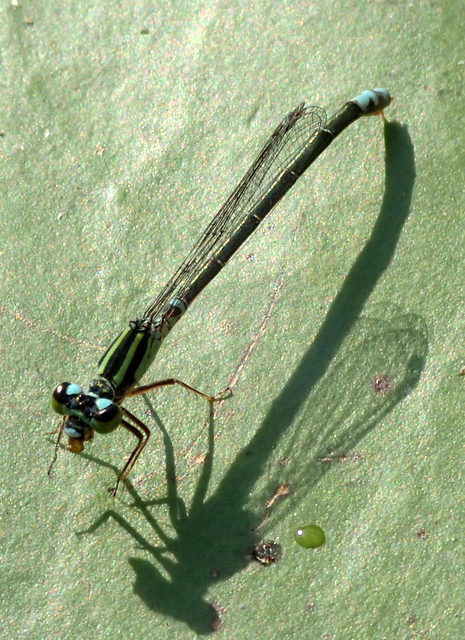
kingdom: Animalia
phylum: Arthropoda
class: Insecta
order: Odonata
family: Coenagrionidae
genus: Ischnura
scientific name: Ischnura kellicotti
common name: Lilypad forktail
